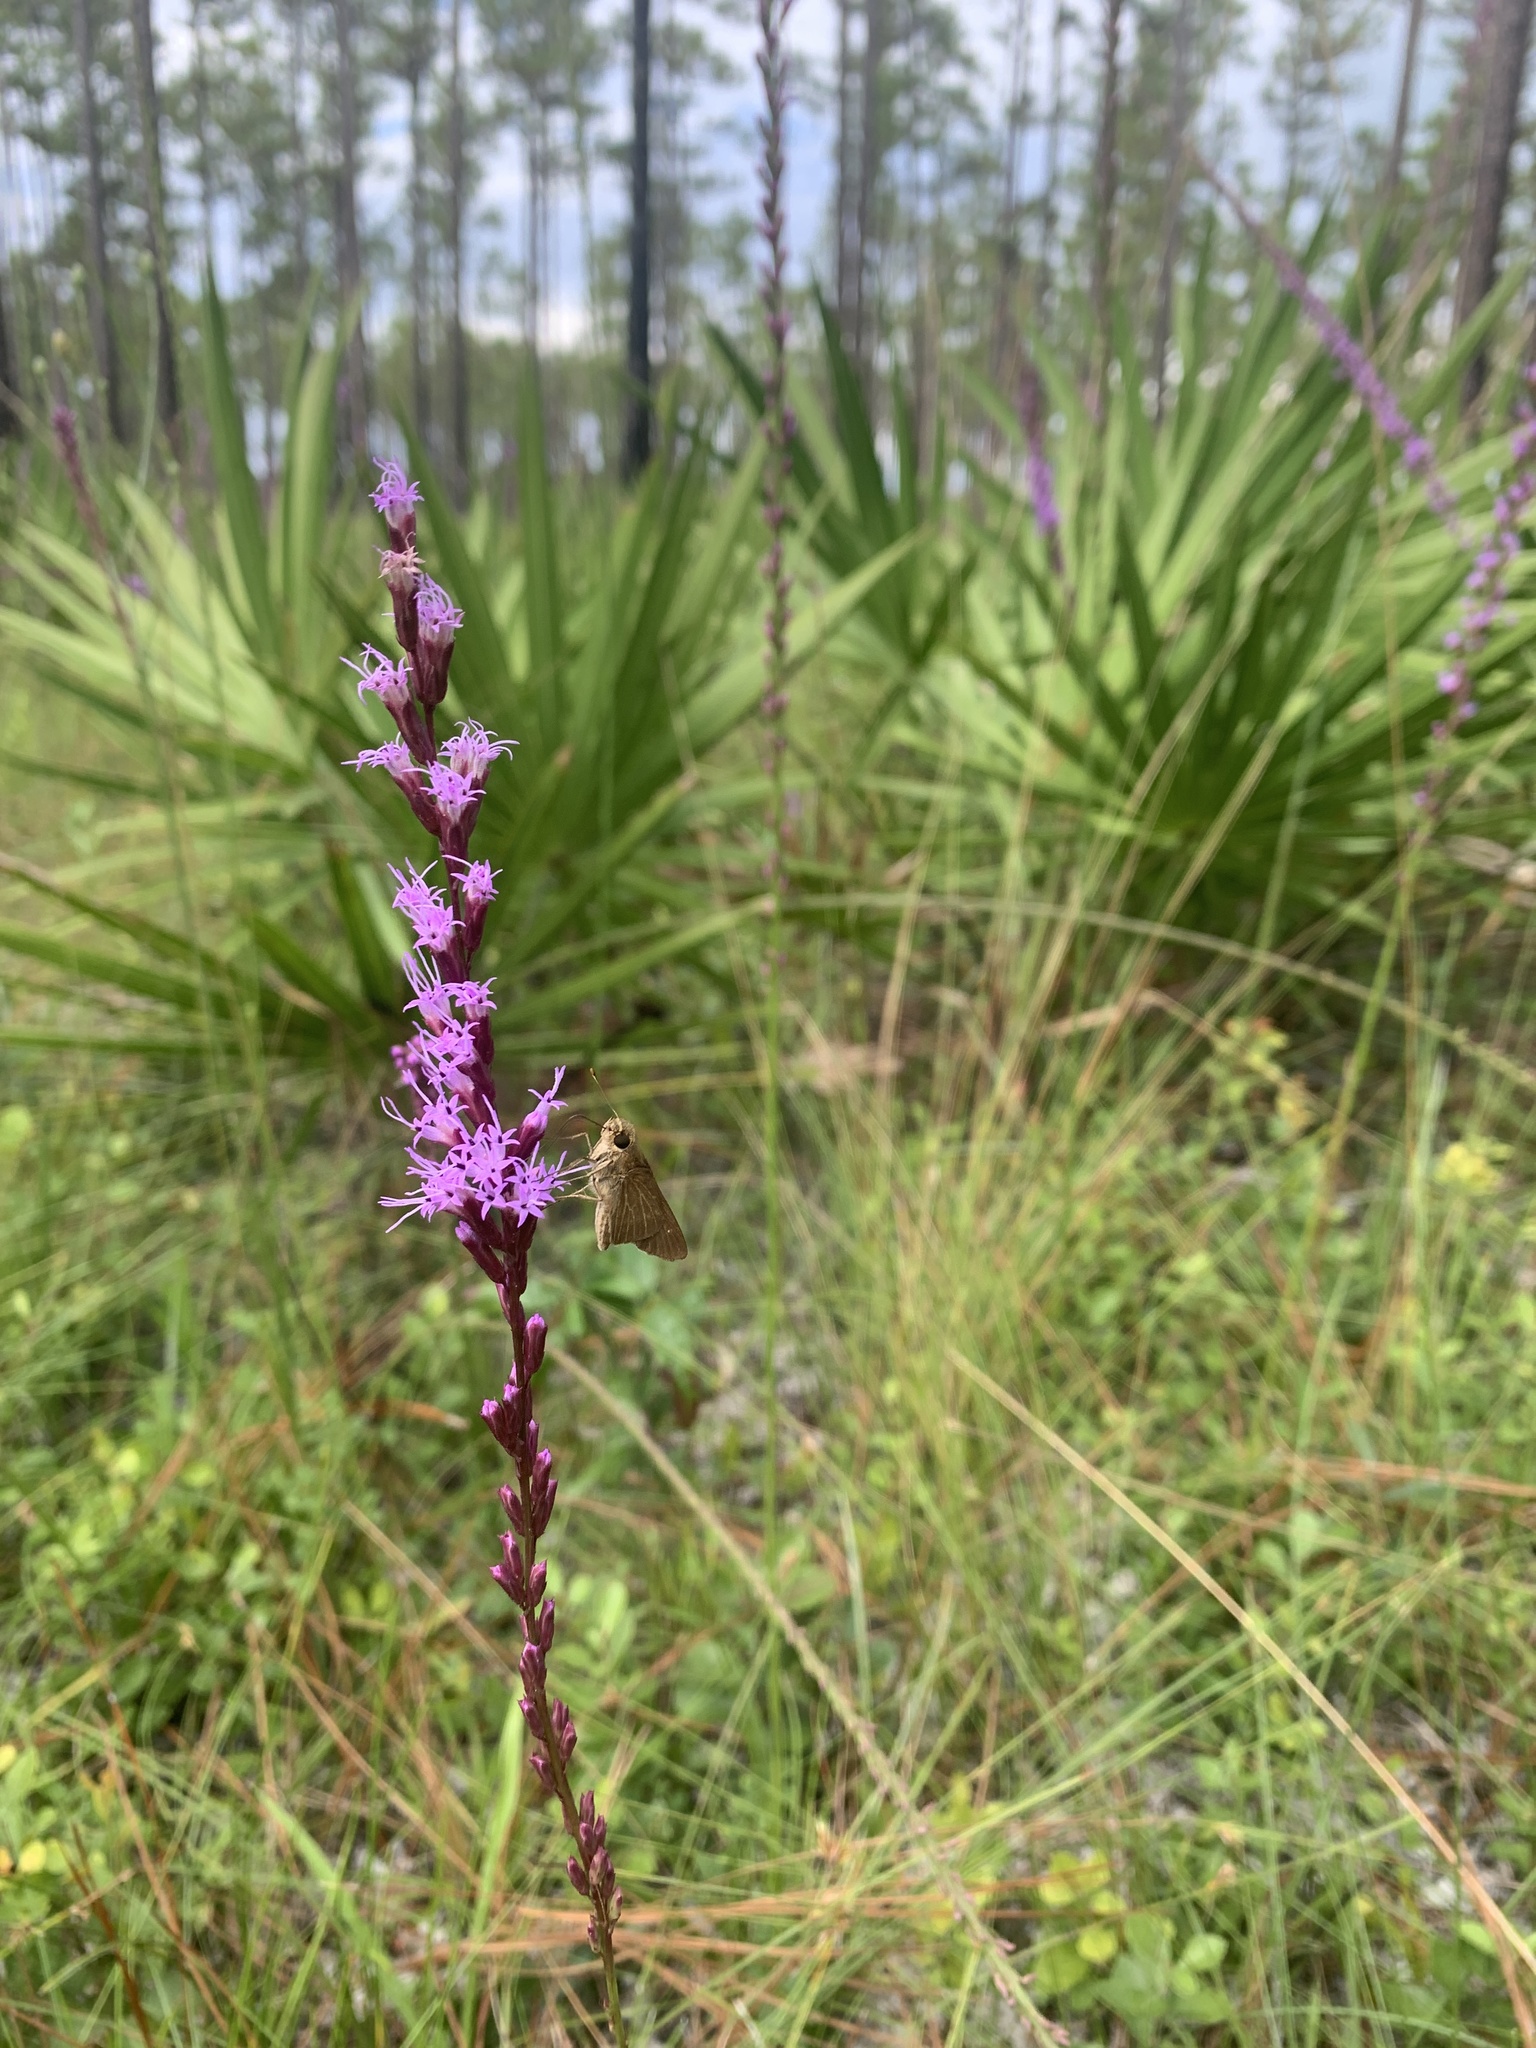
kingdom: Animalia
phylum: Arthropoda
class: Insecta
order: Lepidoptera
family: Hesperiidae
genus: Panoquina
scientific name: Panoquina ocola
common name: Ocola skipper
